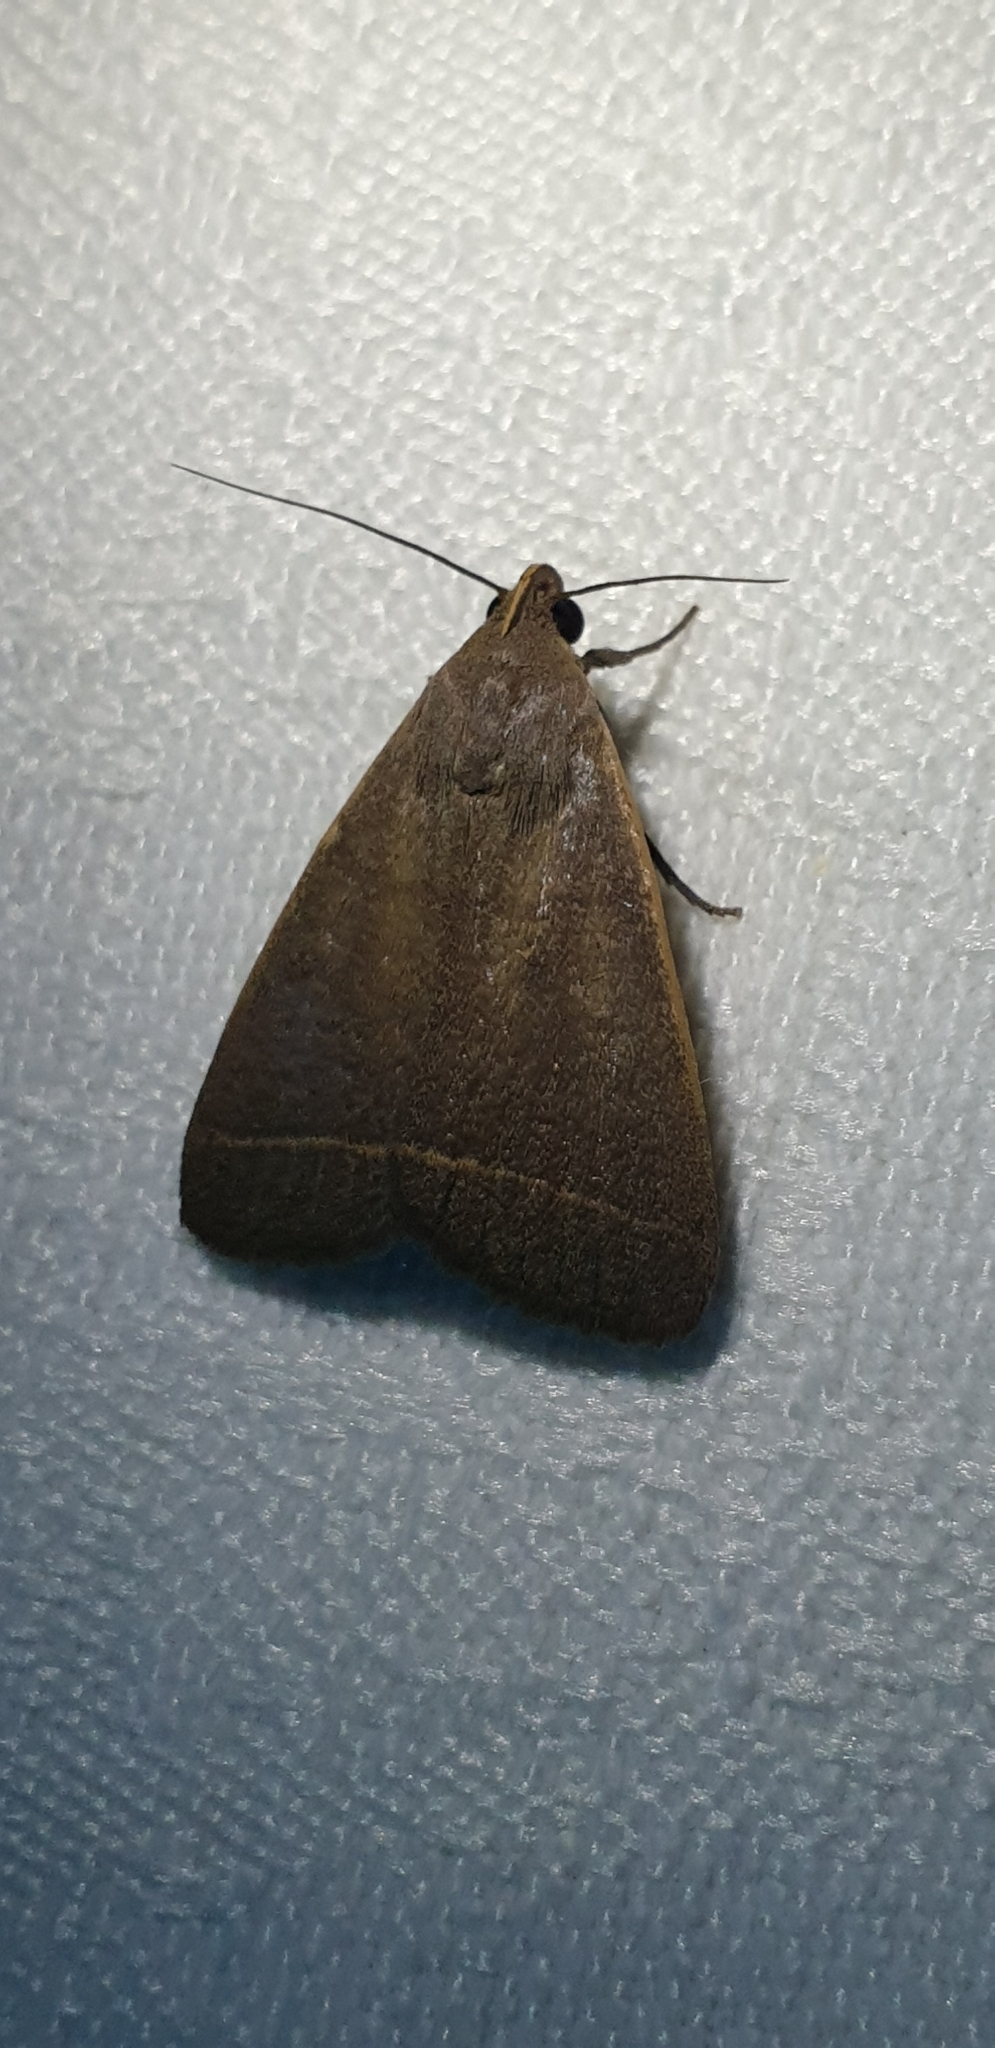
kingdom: Animalia
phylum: Arthropoda
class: Insecta
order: Lepidoptera
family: Erebidae
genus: Simplicia
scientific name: Simplicia cornicalis
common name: Tiki hut litter moth
